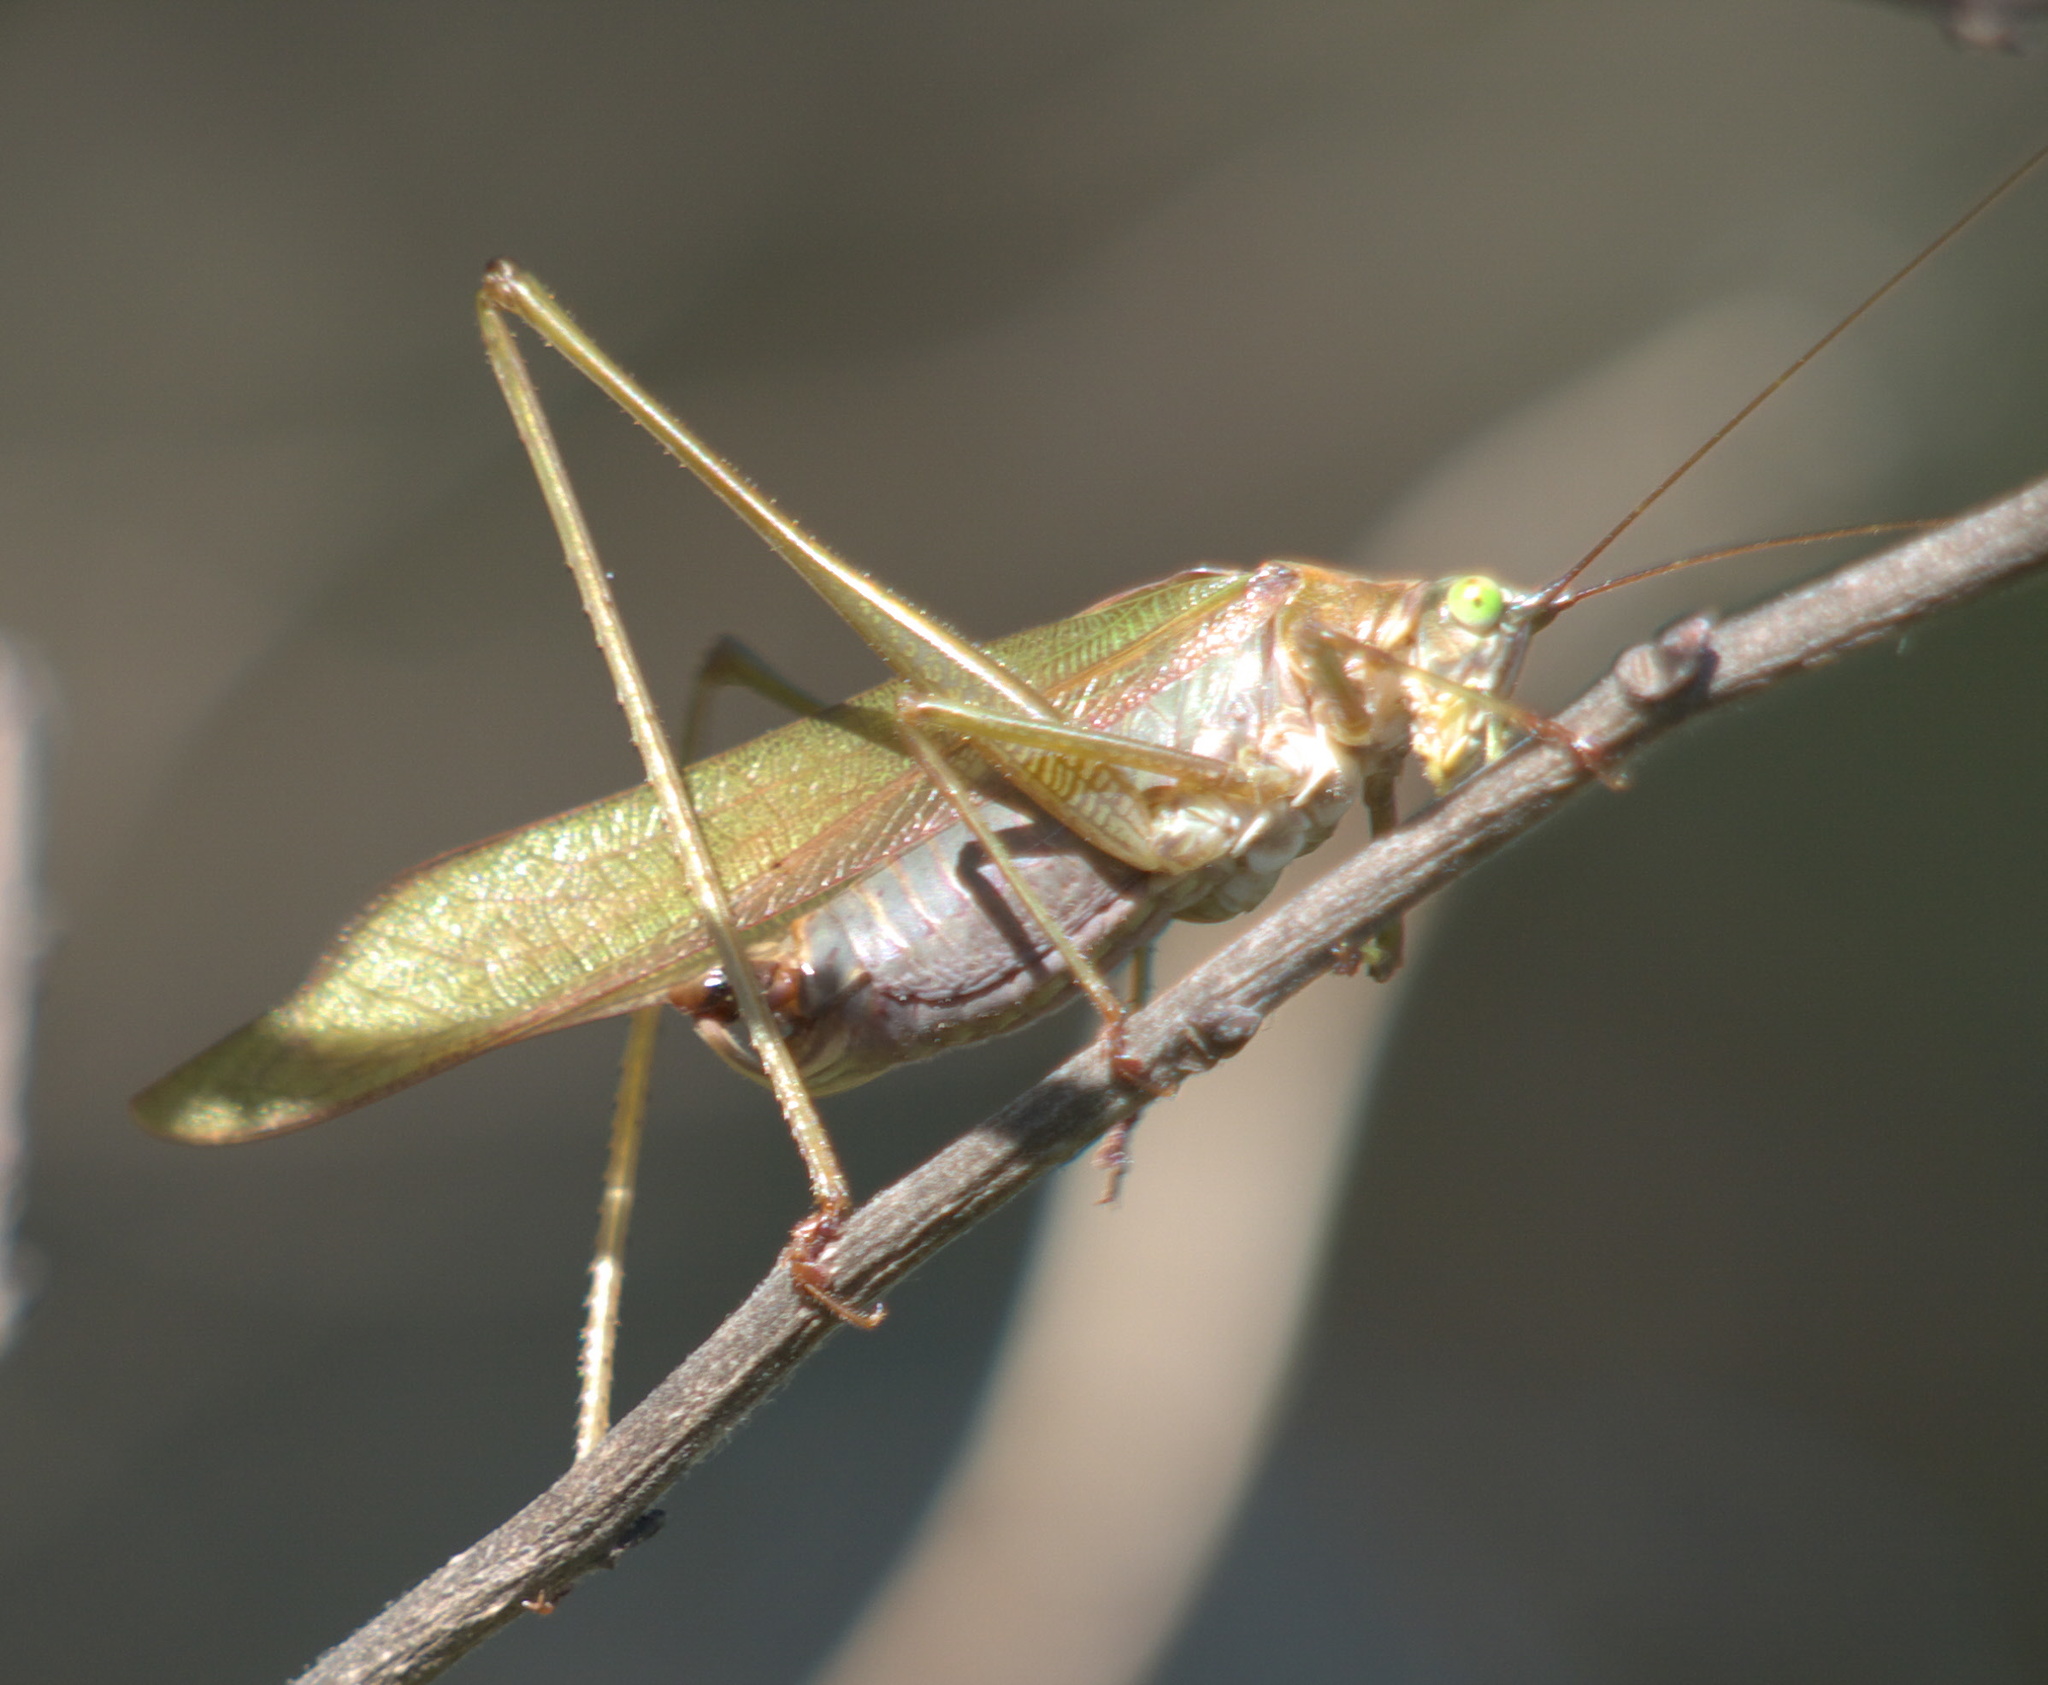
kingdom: Animalia
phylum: Arthropoda
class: Insecta
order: Orthoptera
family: Tettigoniidae
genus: Scudderia
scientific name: Scudderia furcata
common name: Fork-tailed bush katydid
